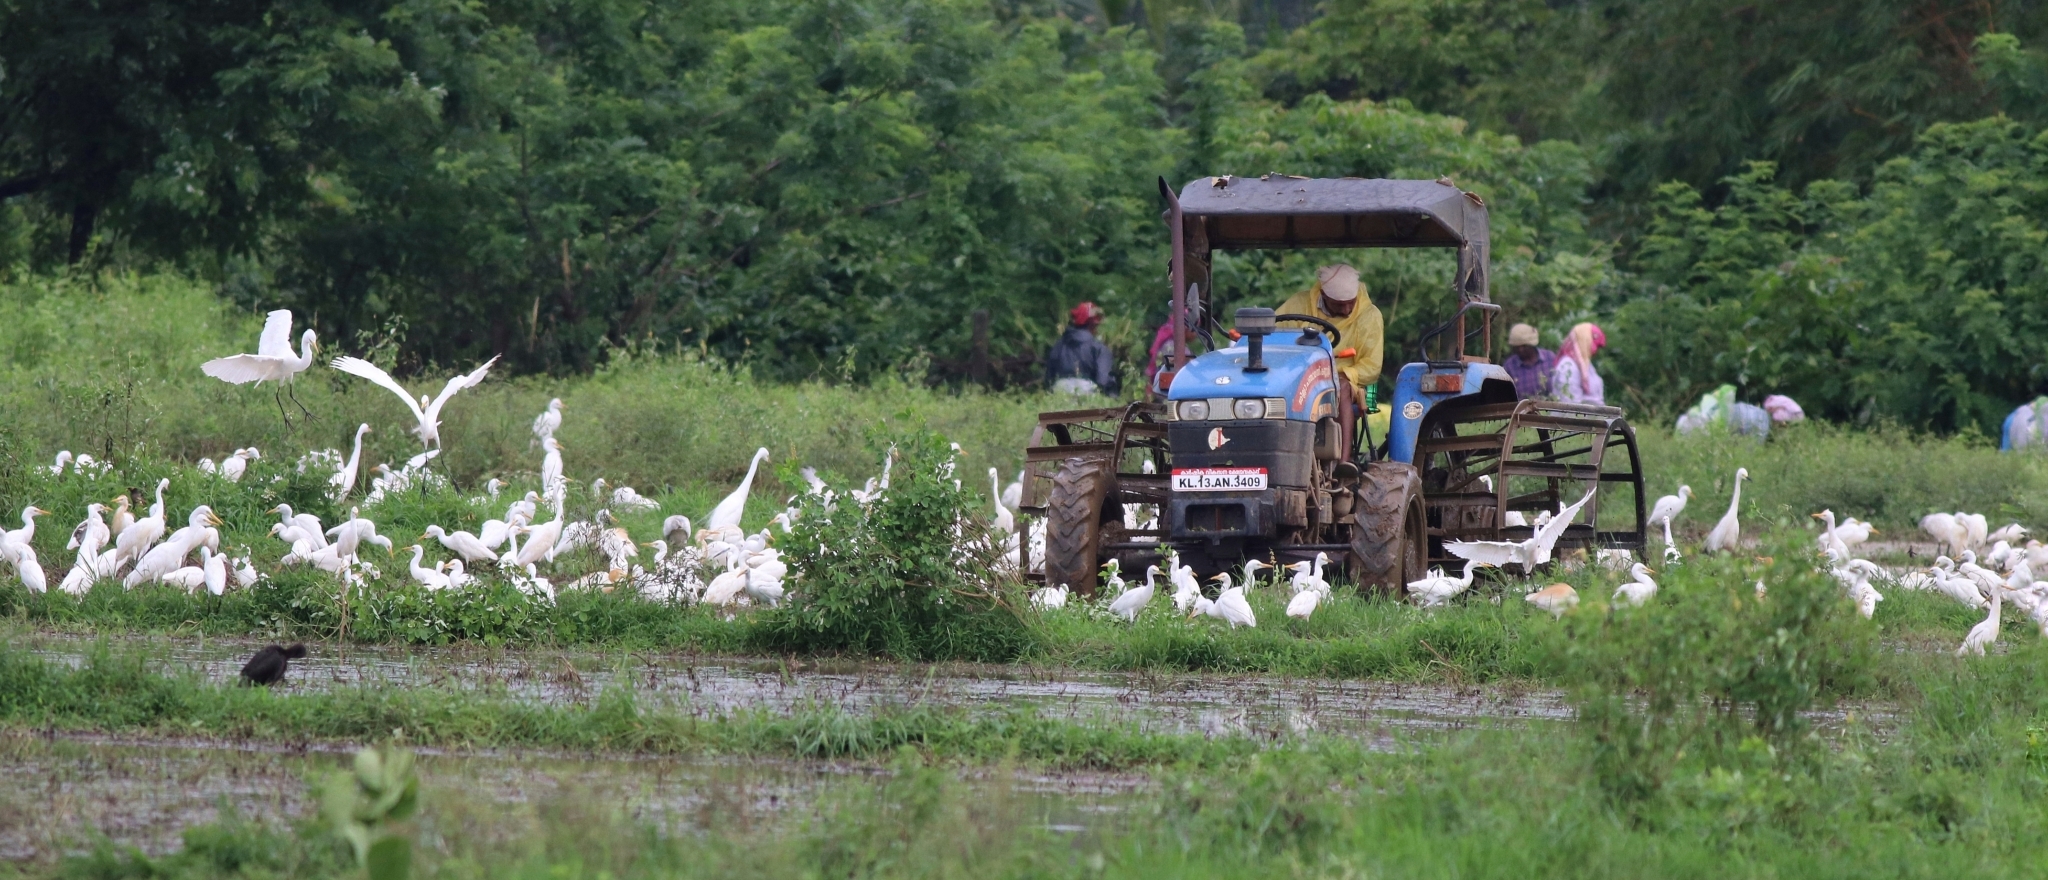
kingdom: Animalia
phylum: Chordata
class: Aves
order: Pelecaniformes
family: Ardeidae
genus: Bubulcus
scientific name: Bubulcus coromandus
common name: Eastern cattle egret
